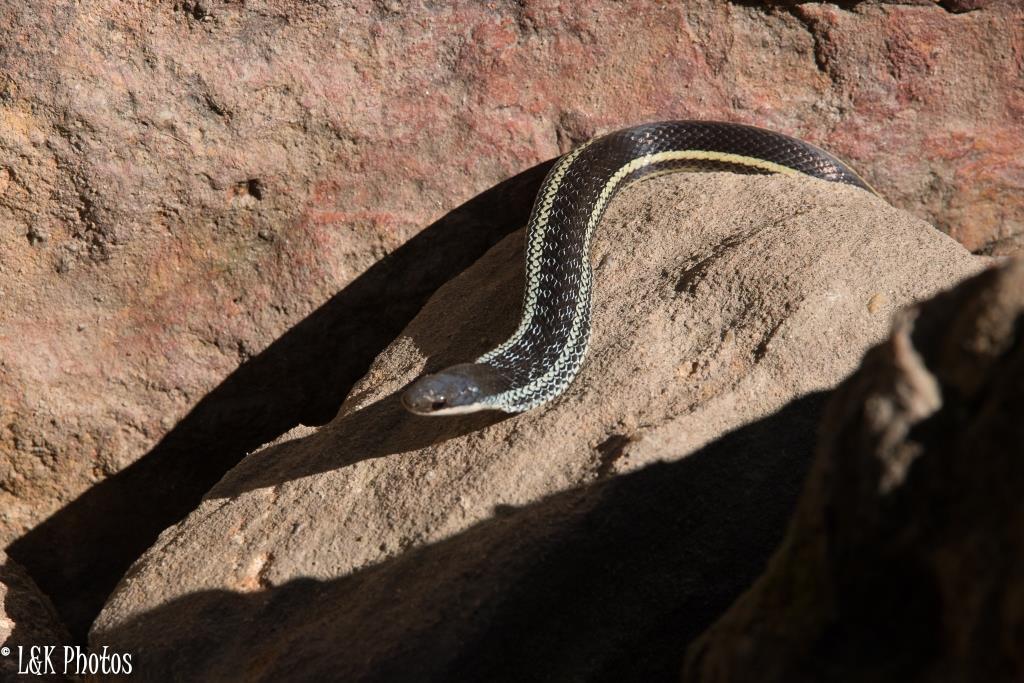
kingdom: Animalia
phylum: Chordata
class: Squamata
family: Pseudoxyrhophiidae
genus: Thamnosophis
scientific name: Thamnosophis lateralis
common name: Lateral water snake
